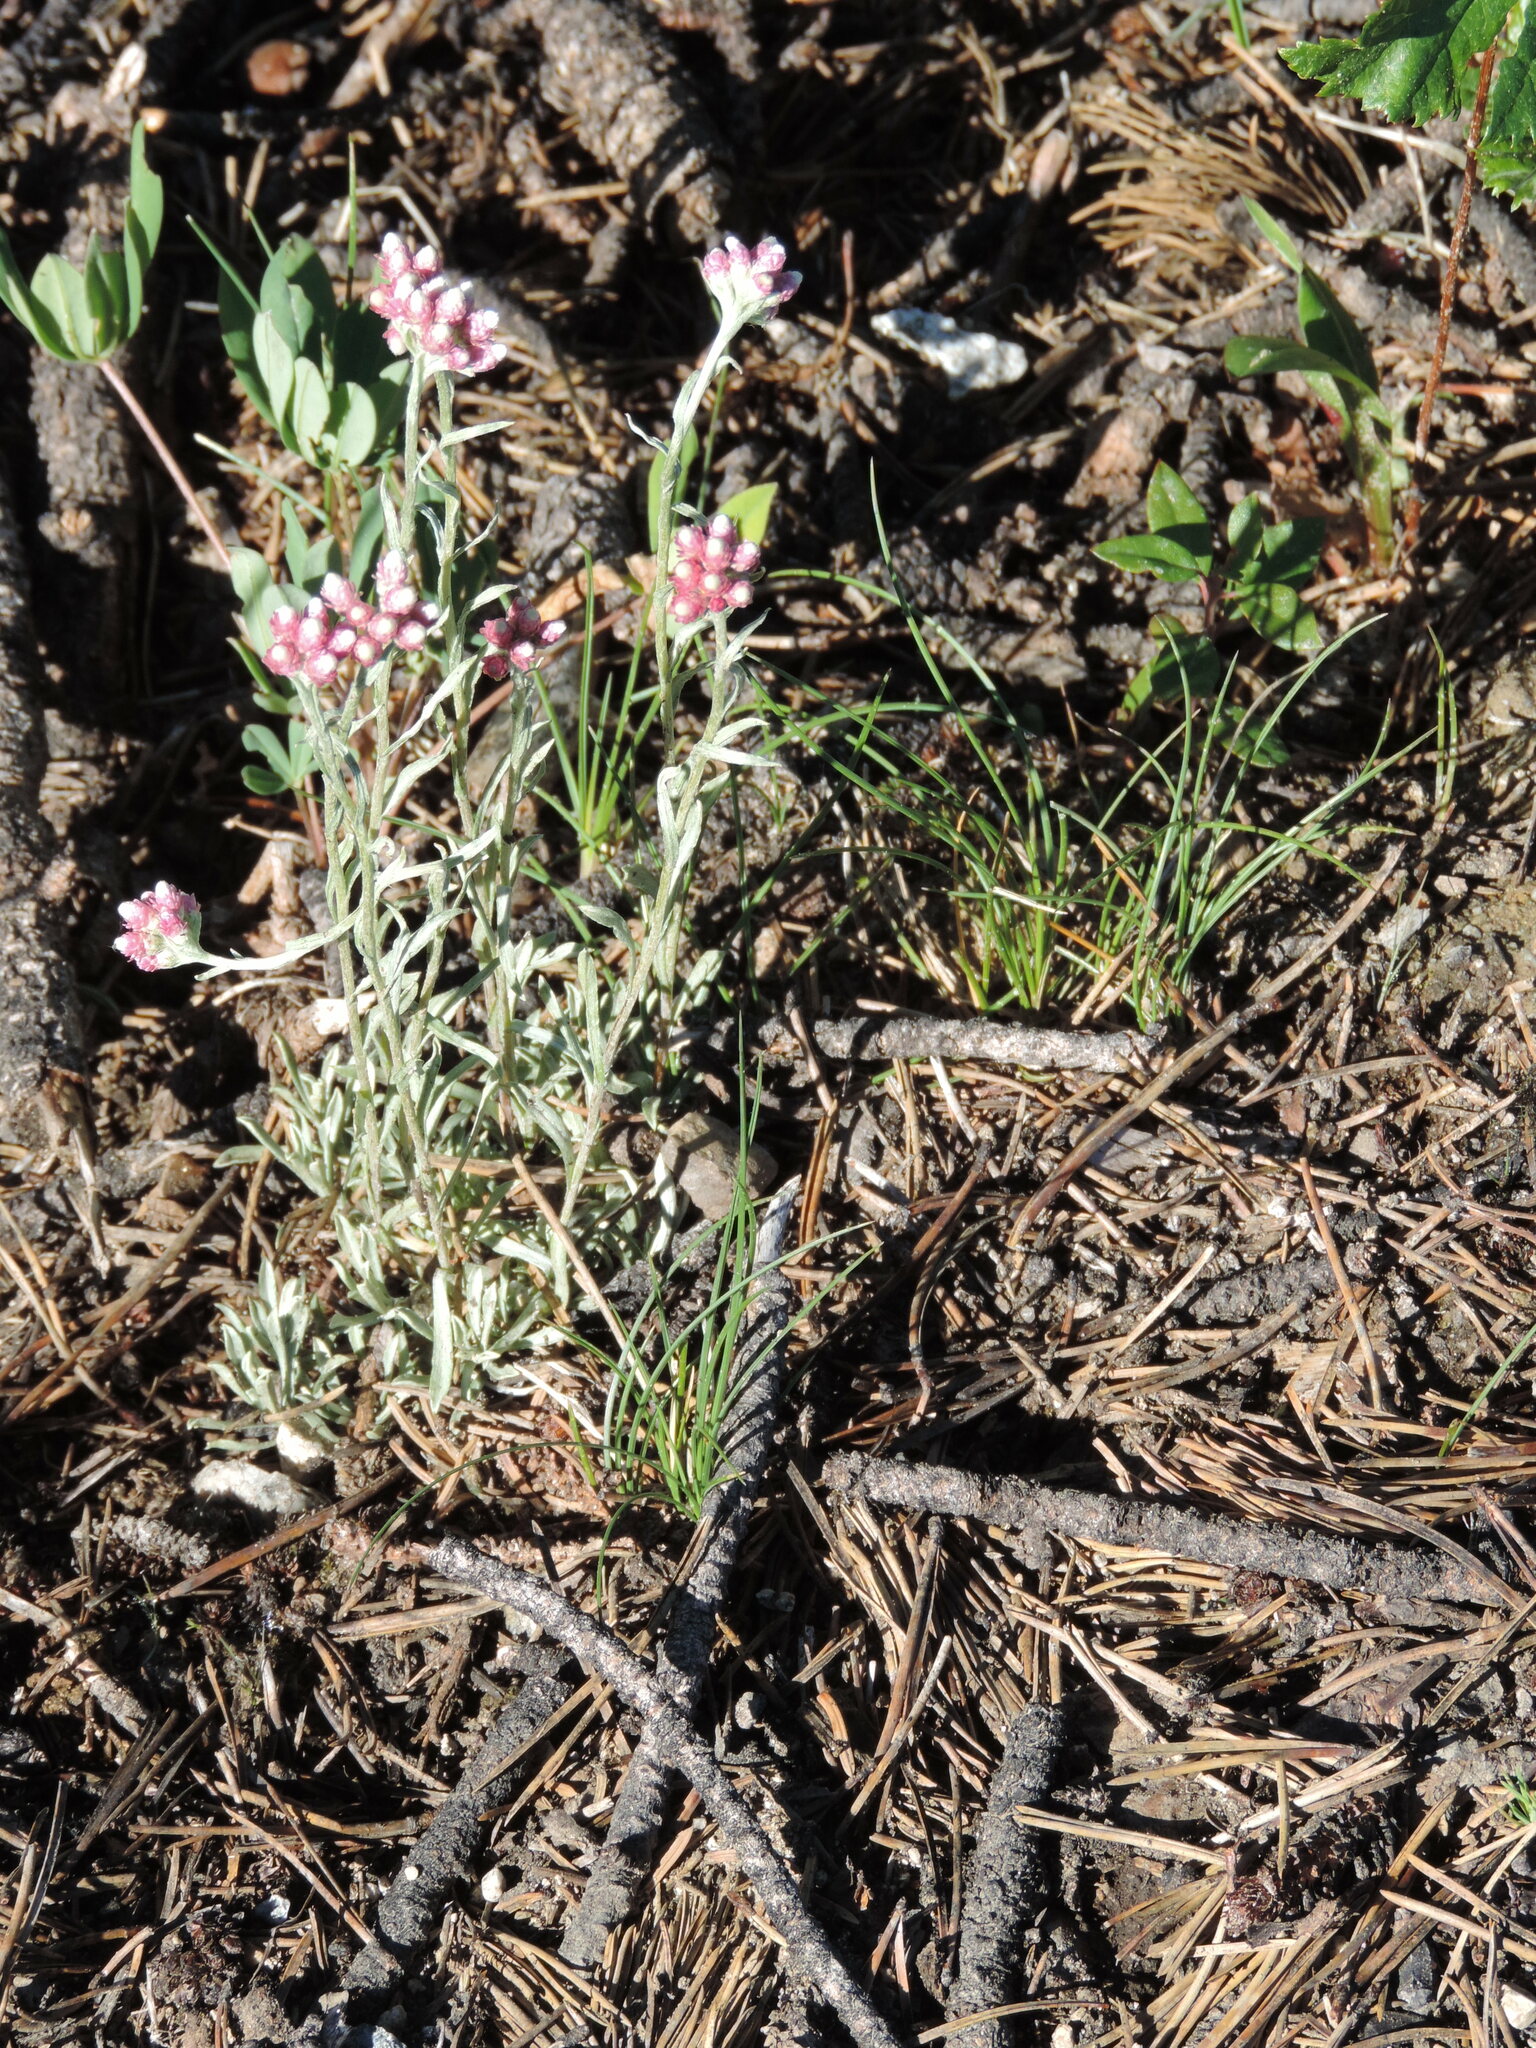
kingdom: Plantae
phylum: Tracheophyta
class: Magnoliopsida
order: Asterales
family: Asteraceae
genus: Antennaria
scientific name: Antennaria rosea
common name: Rosy pussytoes
